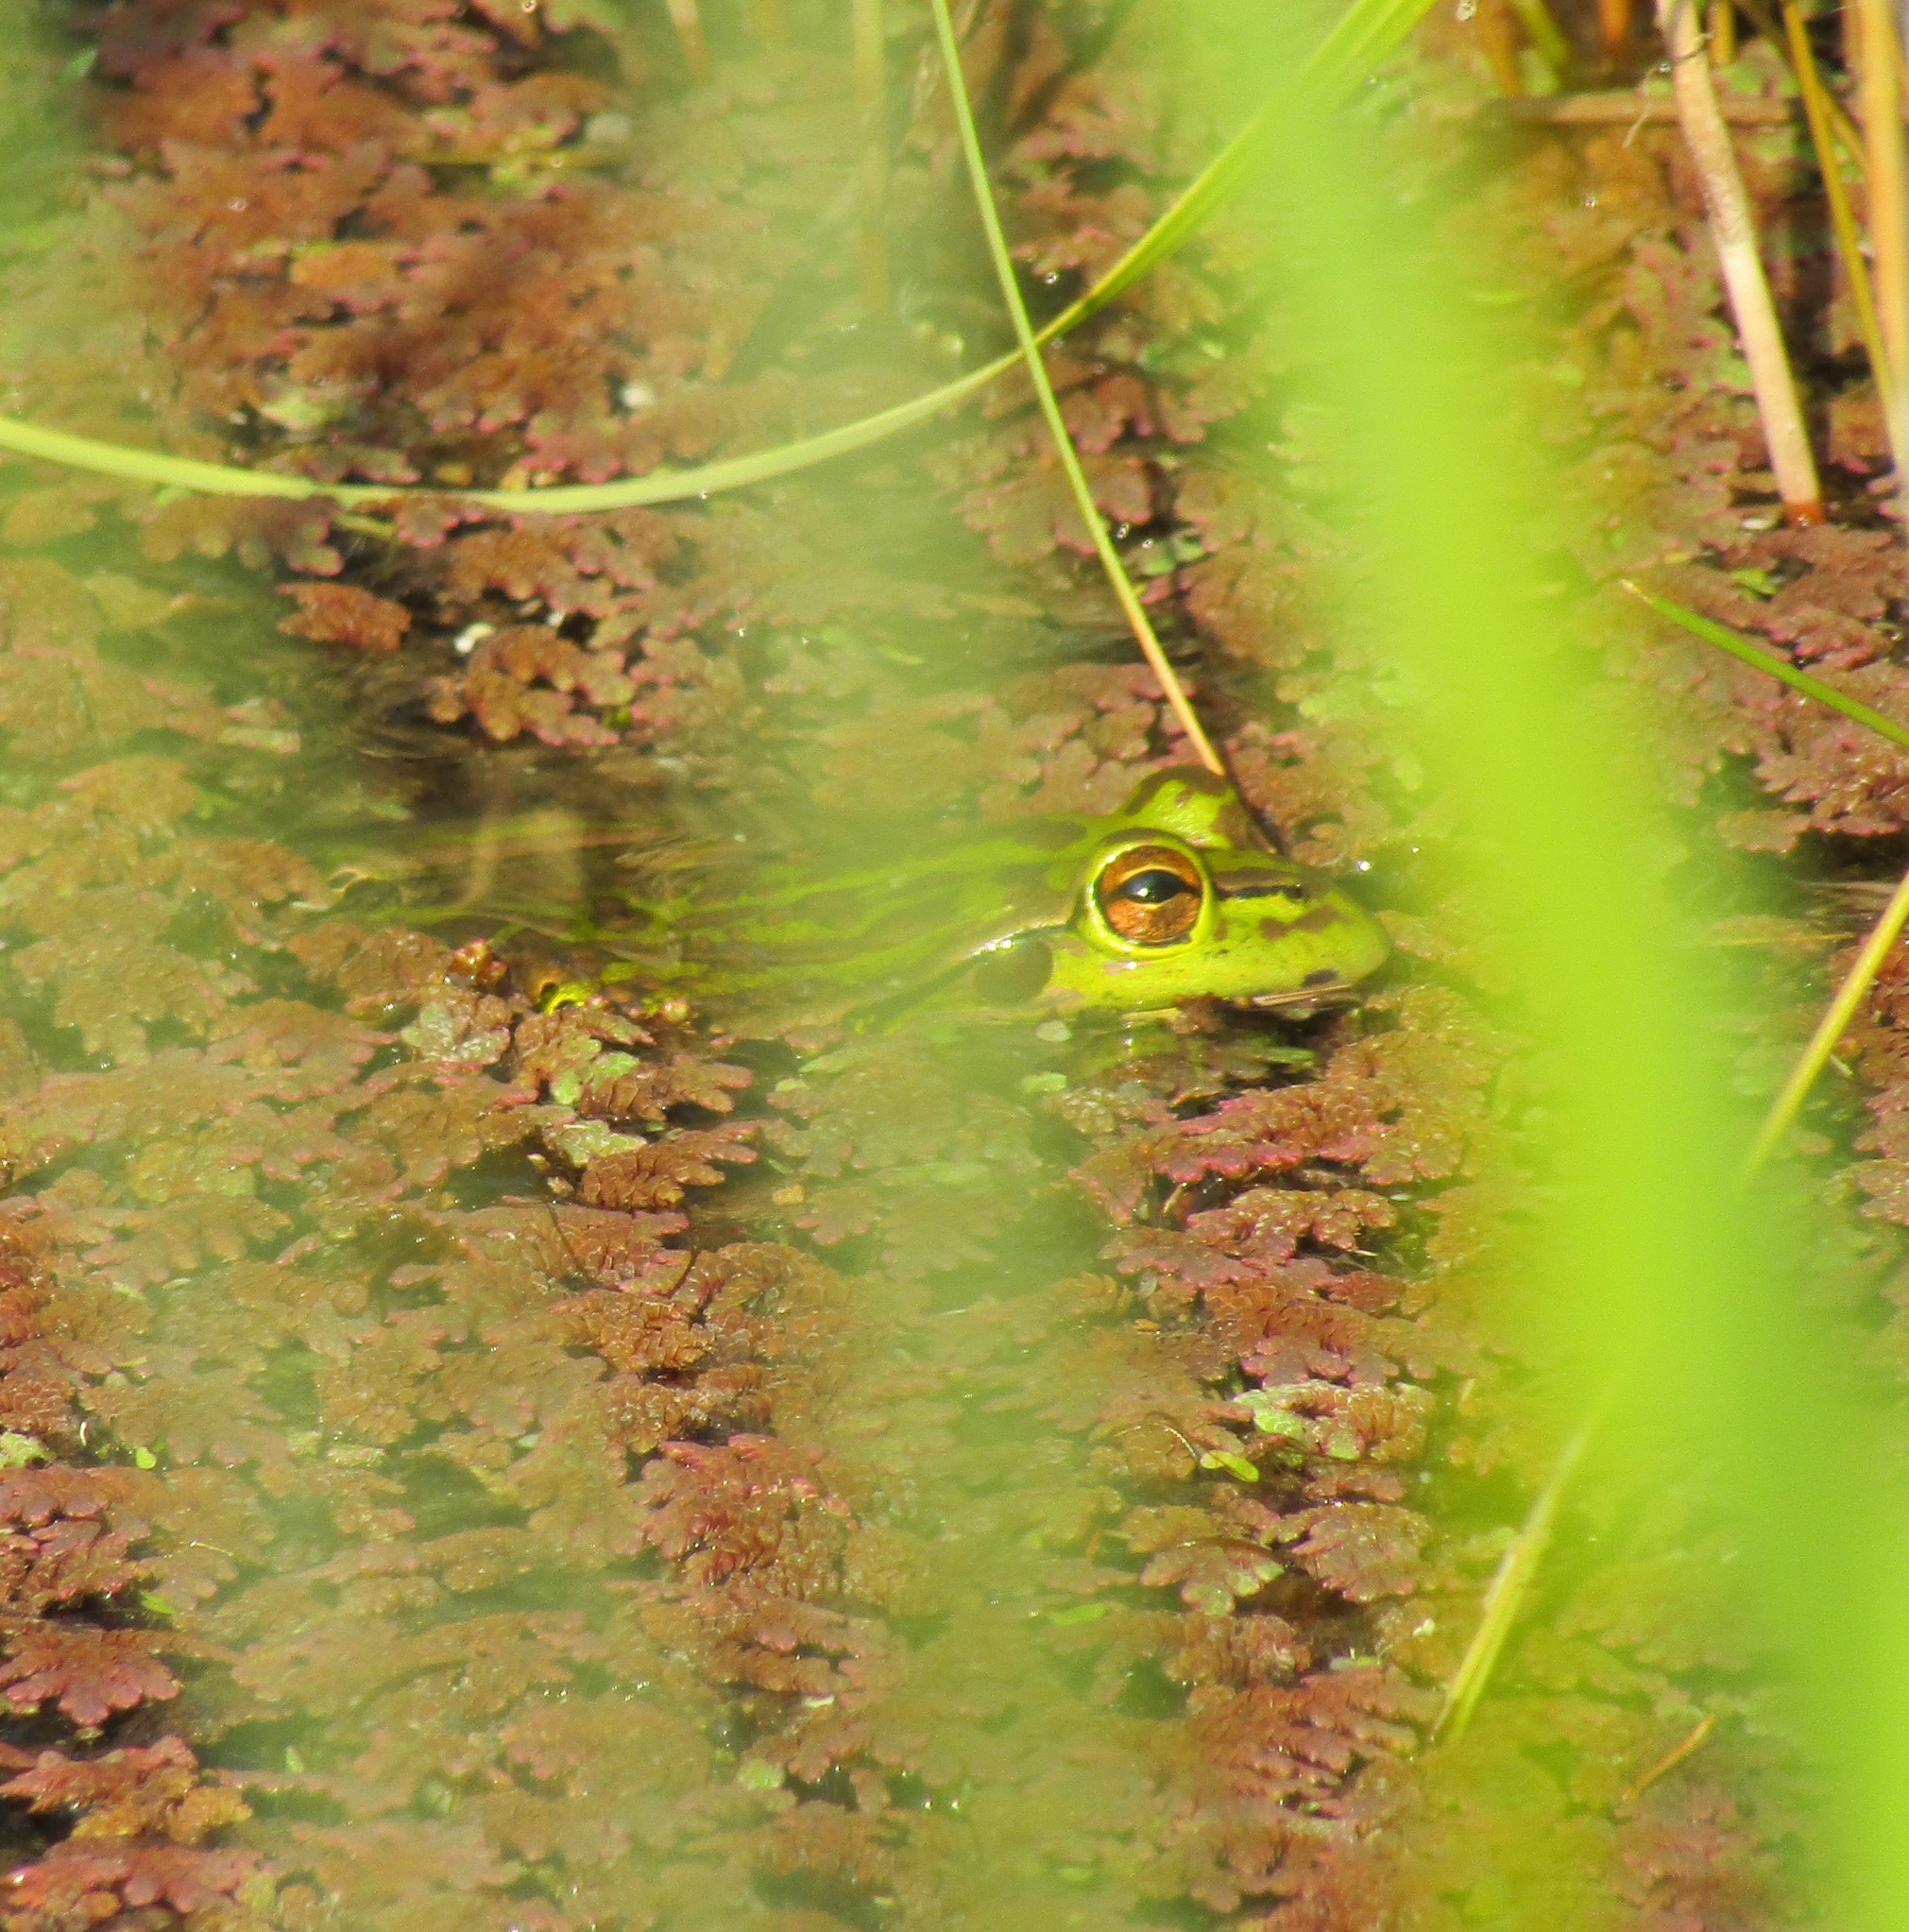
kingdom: Animalia
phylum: Chordata
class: Amphibia
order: Anura
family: Pelodryadidae
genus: Ranoidea
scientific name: Ranoidea aurea
